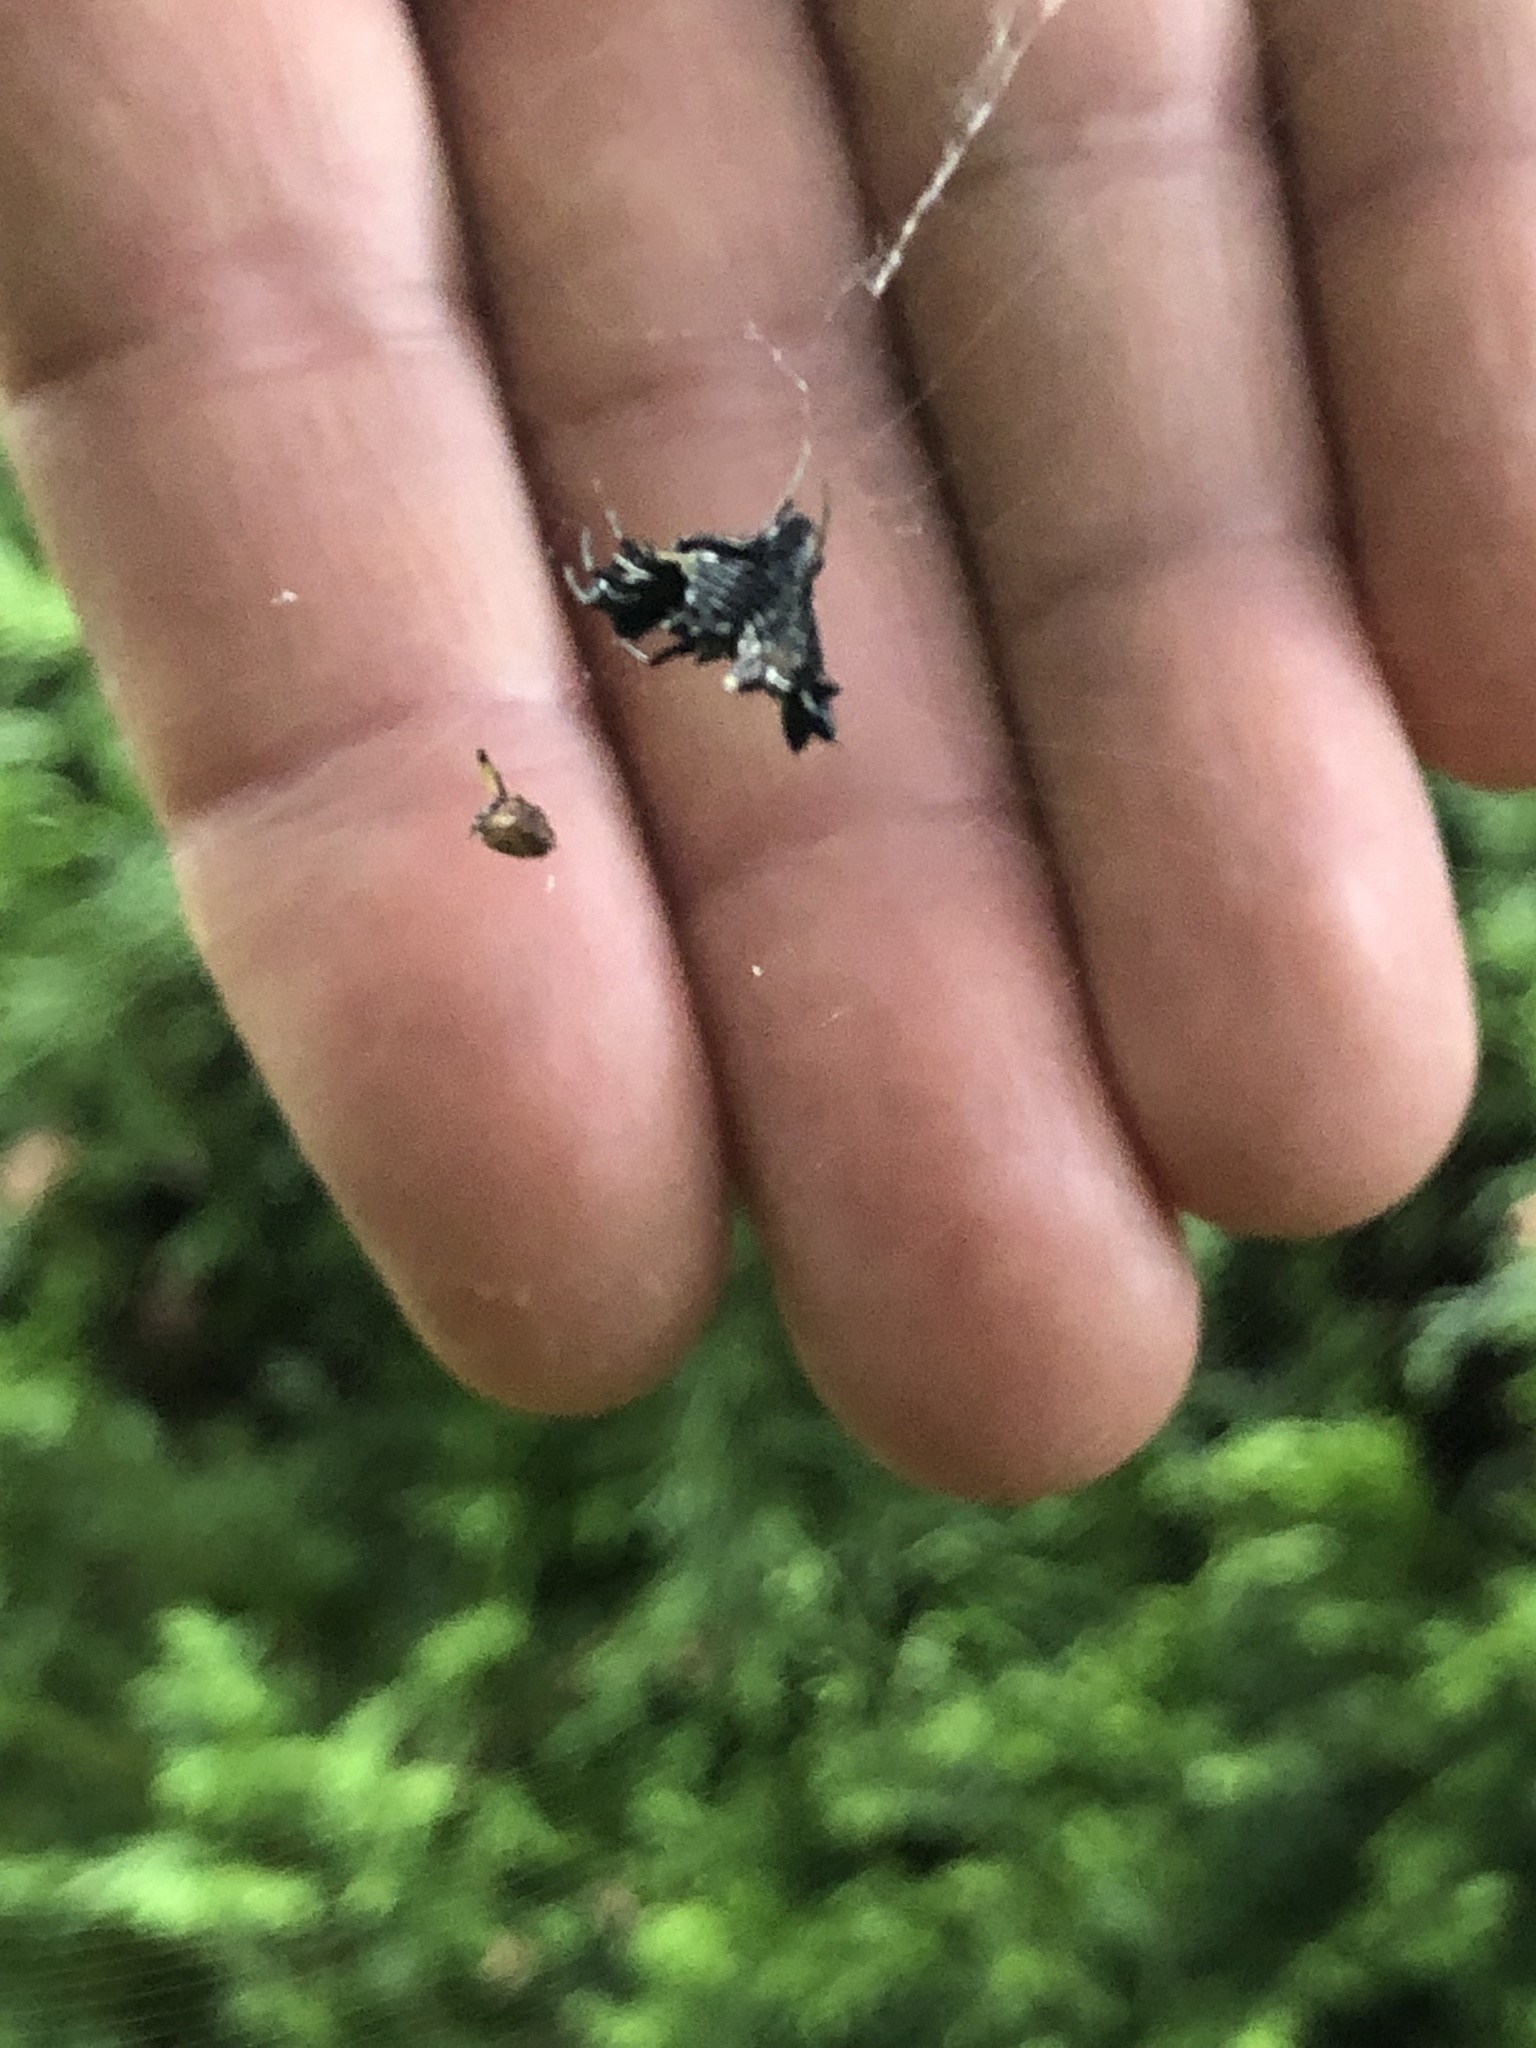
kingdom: Animalia
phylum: Arthropoda
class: Arachnida
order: Araneae
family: Araneidae
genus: Micrathena
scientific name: Micrathena gracilis
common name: Orb weavers
